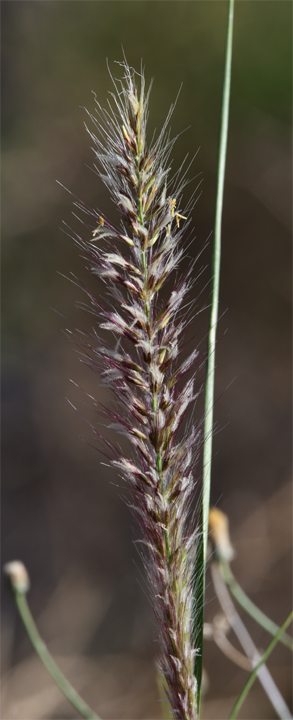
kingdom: Plantae
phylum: Tracheophyta
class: Liliopsida
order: Poales
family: Poaceae
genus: Cenchrus
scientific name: Cenchrus setaceus
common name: Crimson fountaingrass
